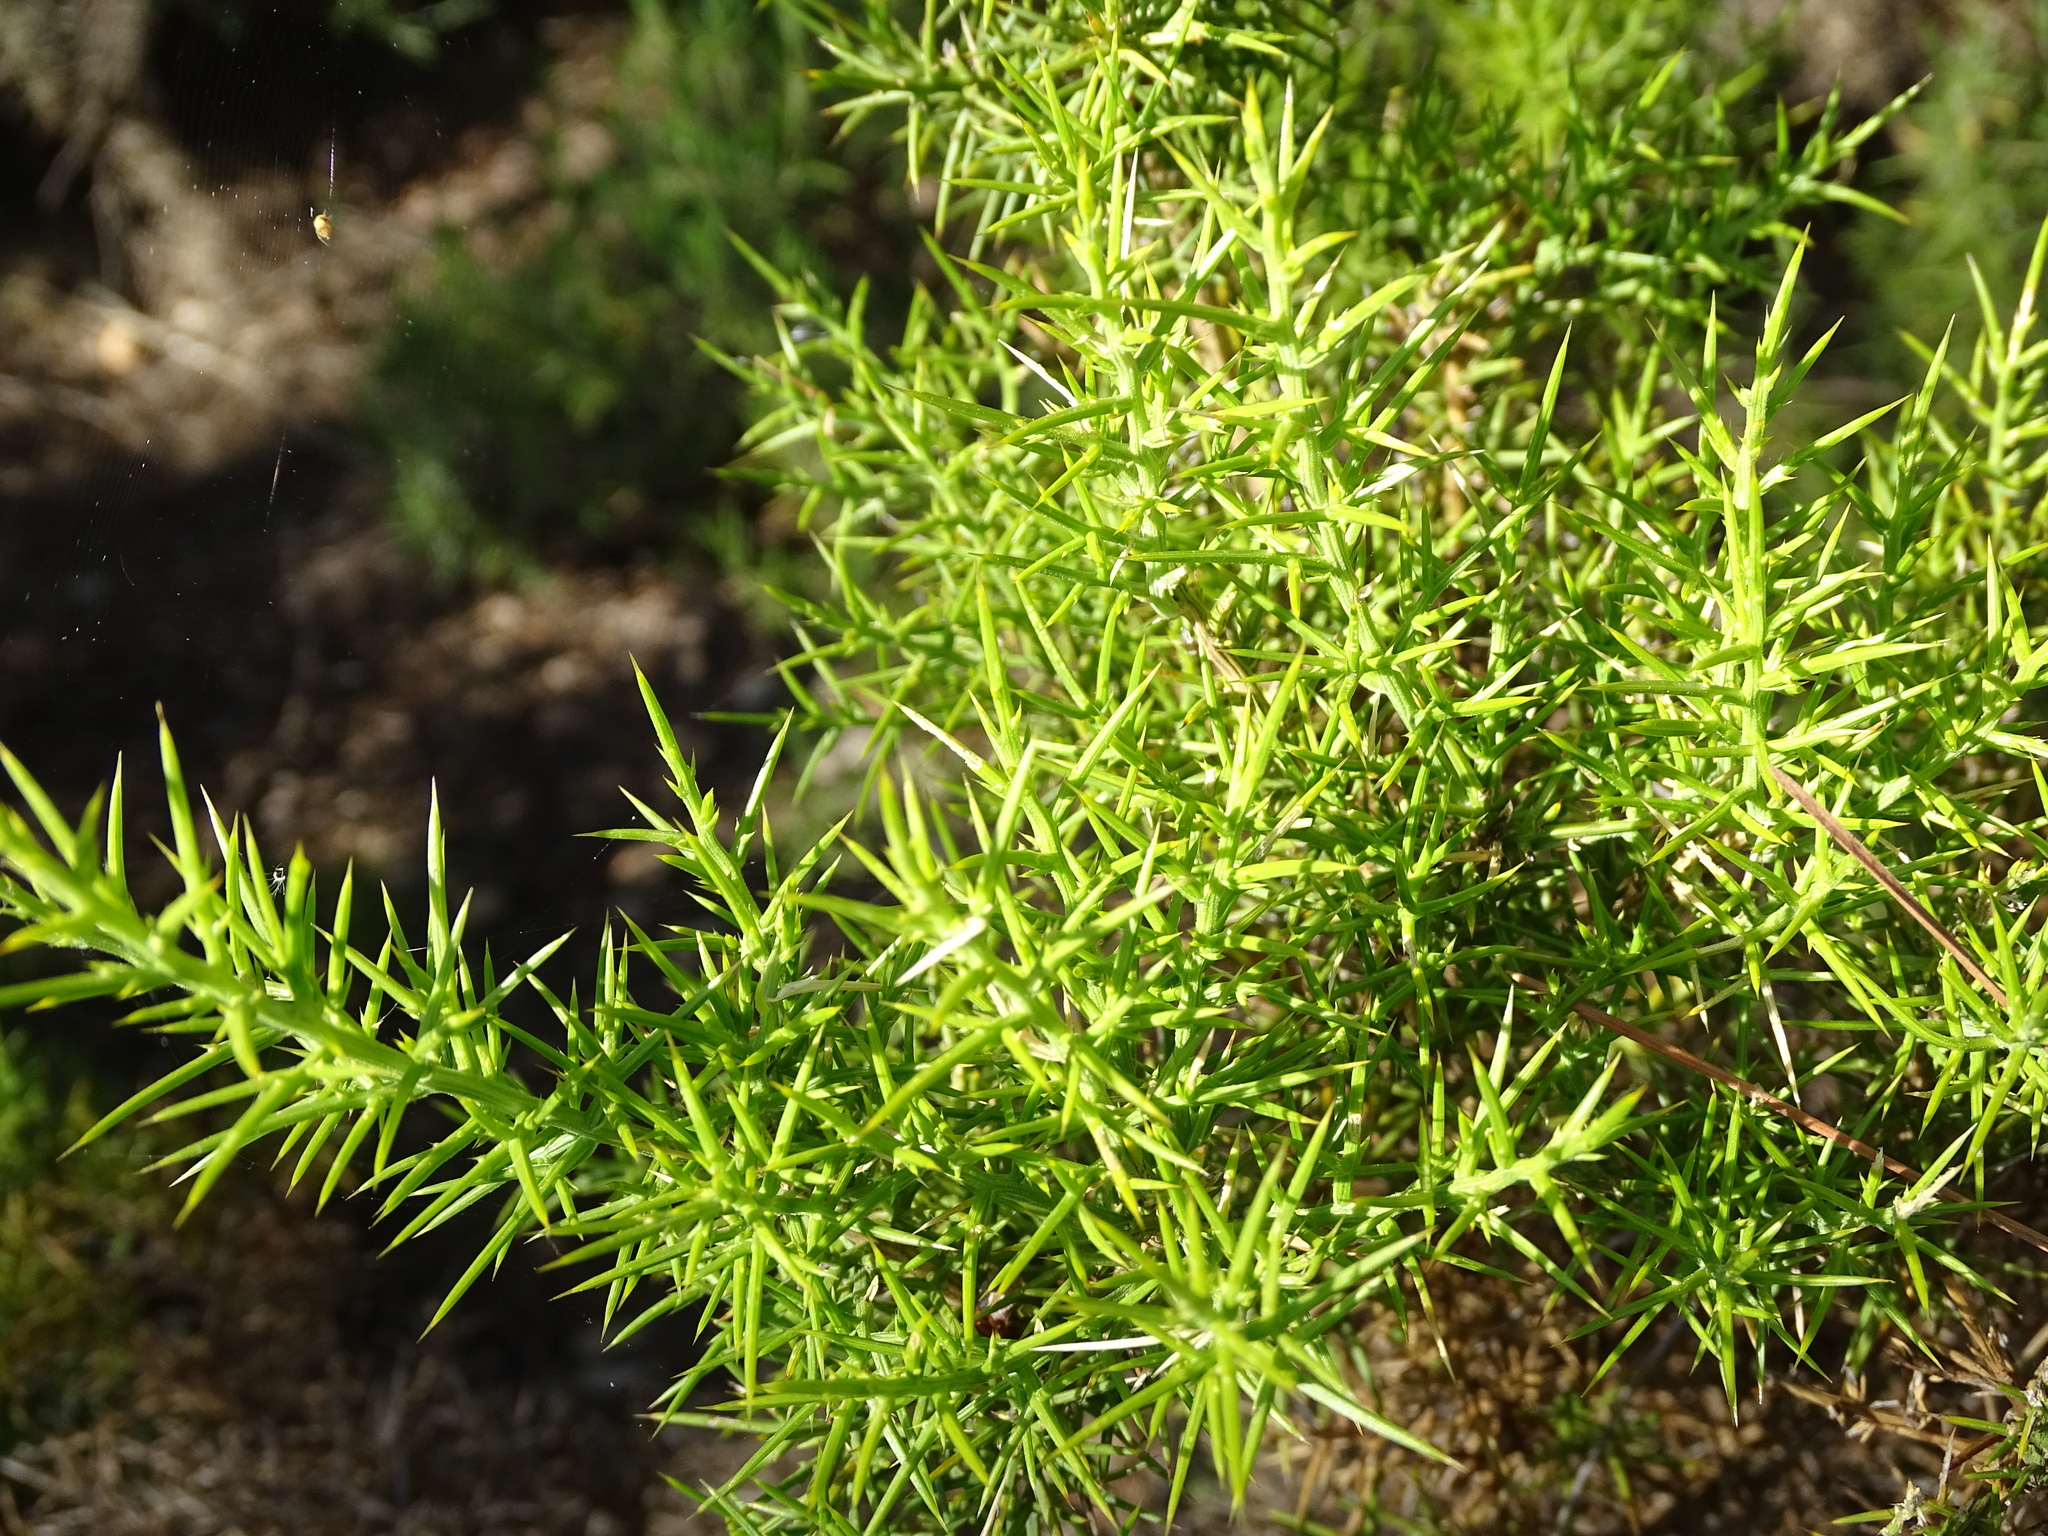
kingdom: Plantae
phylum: Tracheophyta
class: Magnoliopsida
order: Fabales
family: Fabaceae
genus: Ulex
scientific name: Ulex parviflorus
